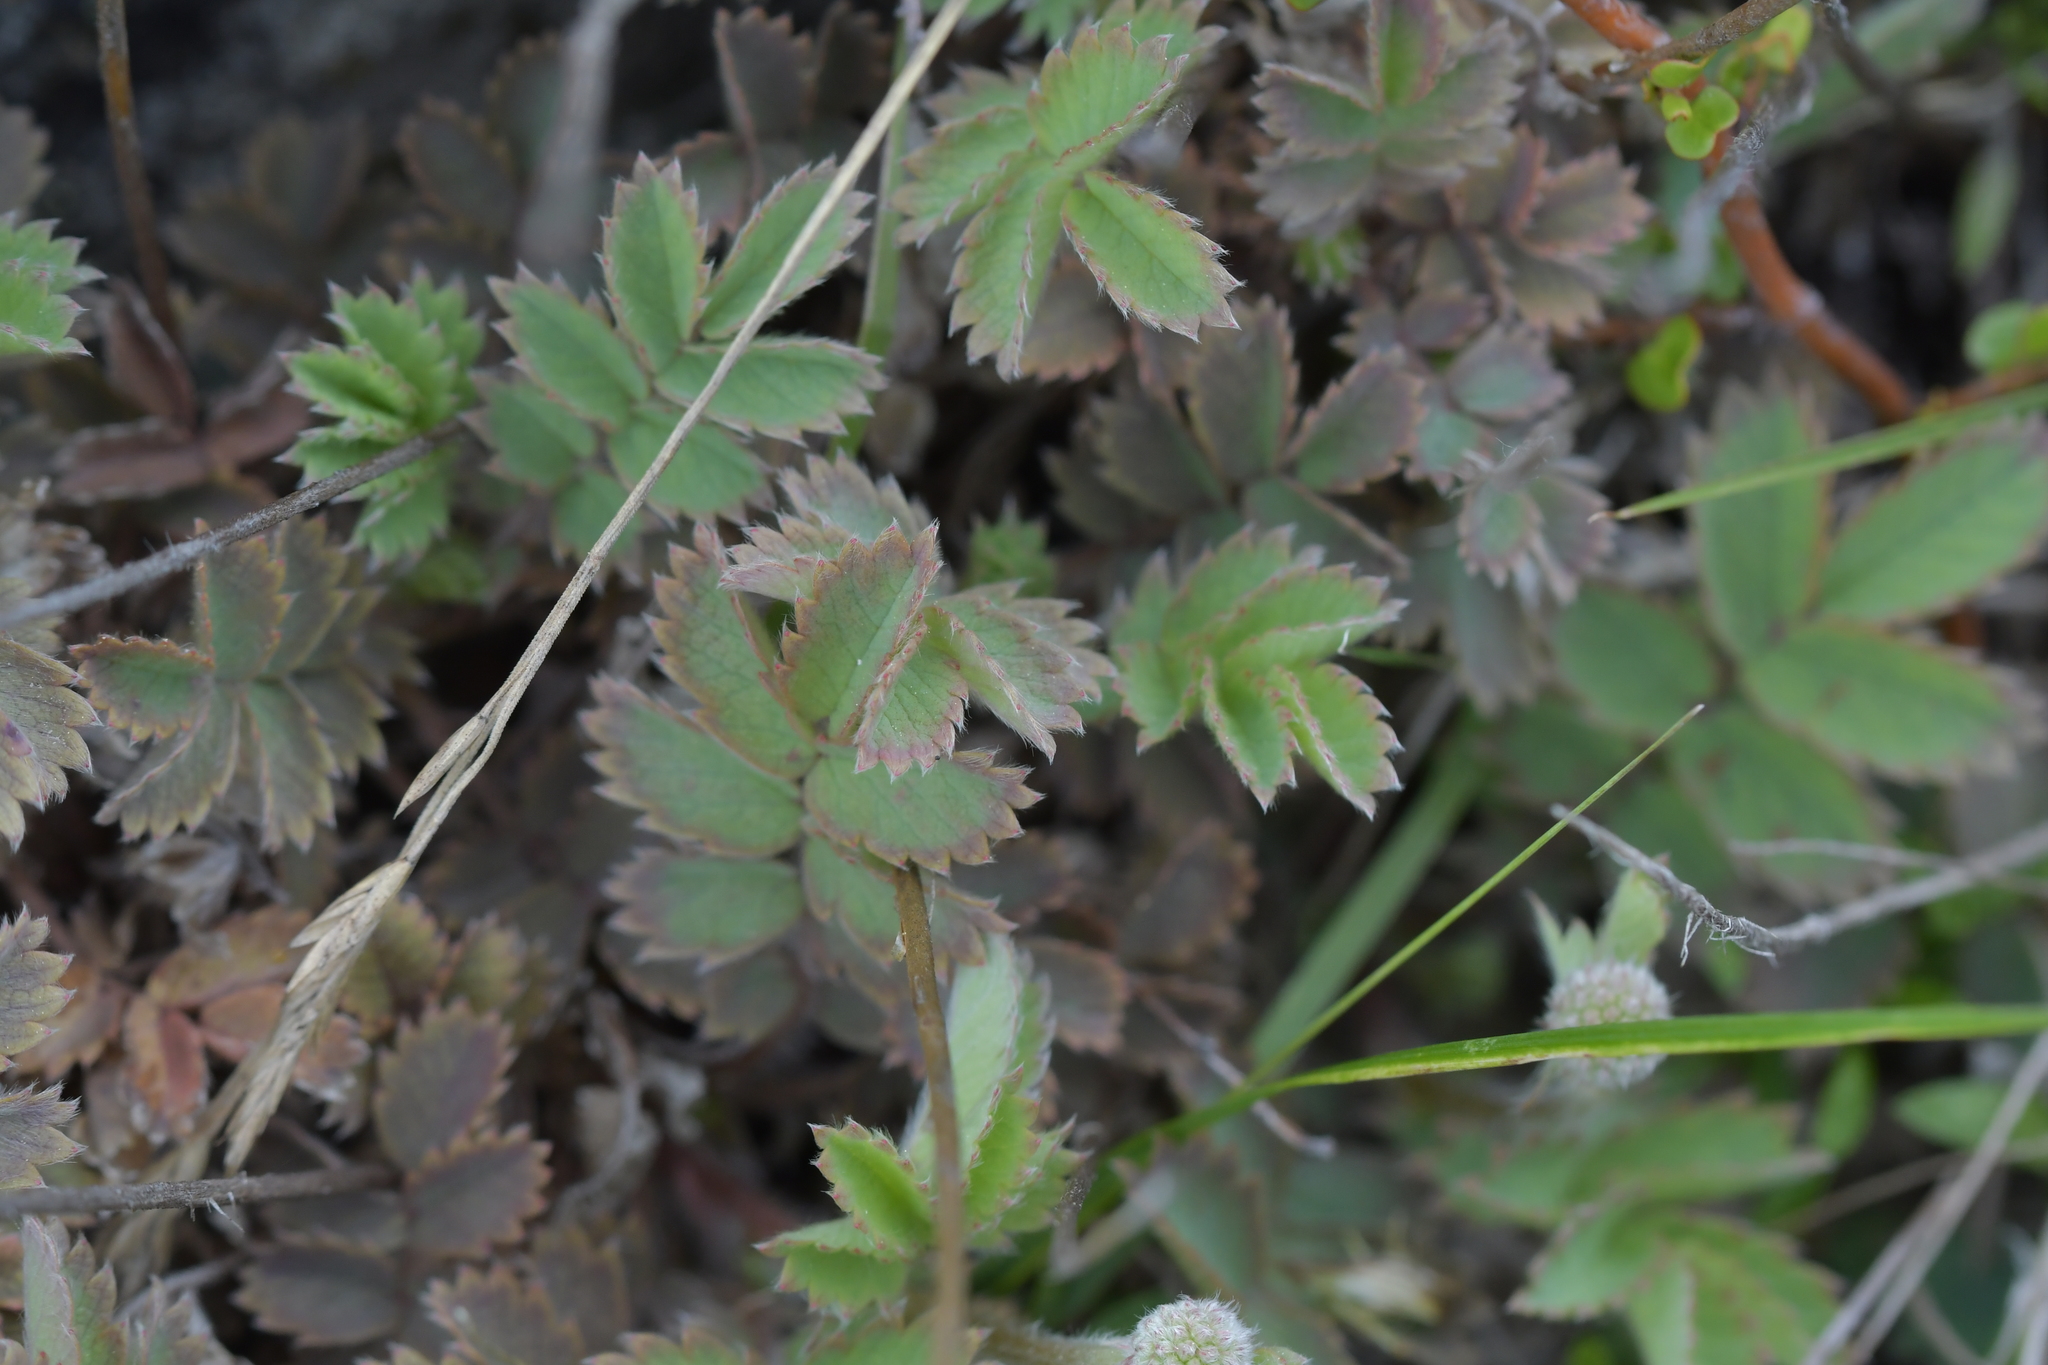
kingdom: Plantae
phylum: Tracheophyta
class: Magnoliopsida
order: Rosales
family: Rosaceae
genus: Acaena
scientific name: Acaena caesiiglauca
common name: Glaucous pirri-pirri-bur
